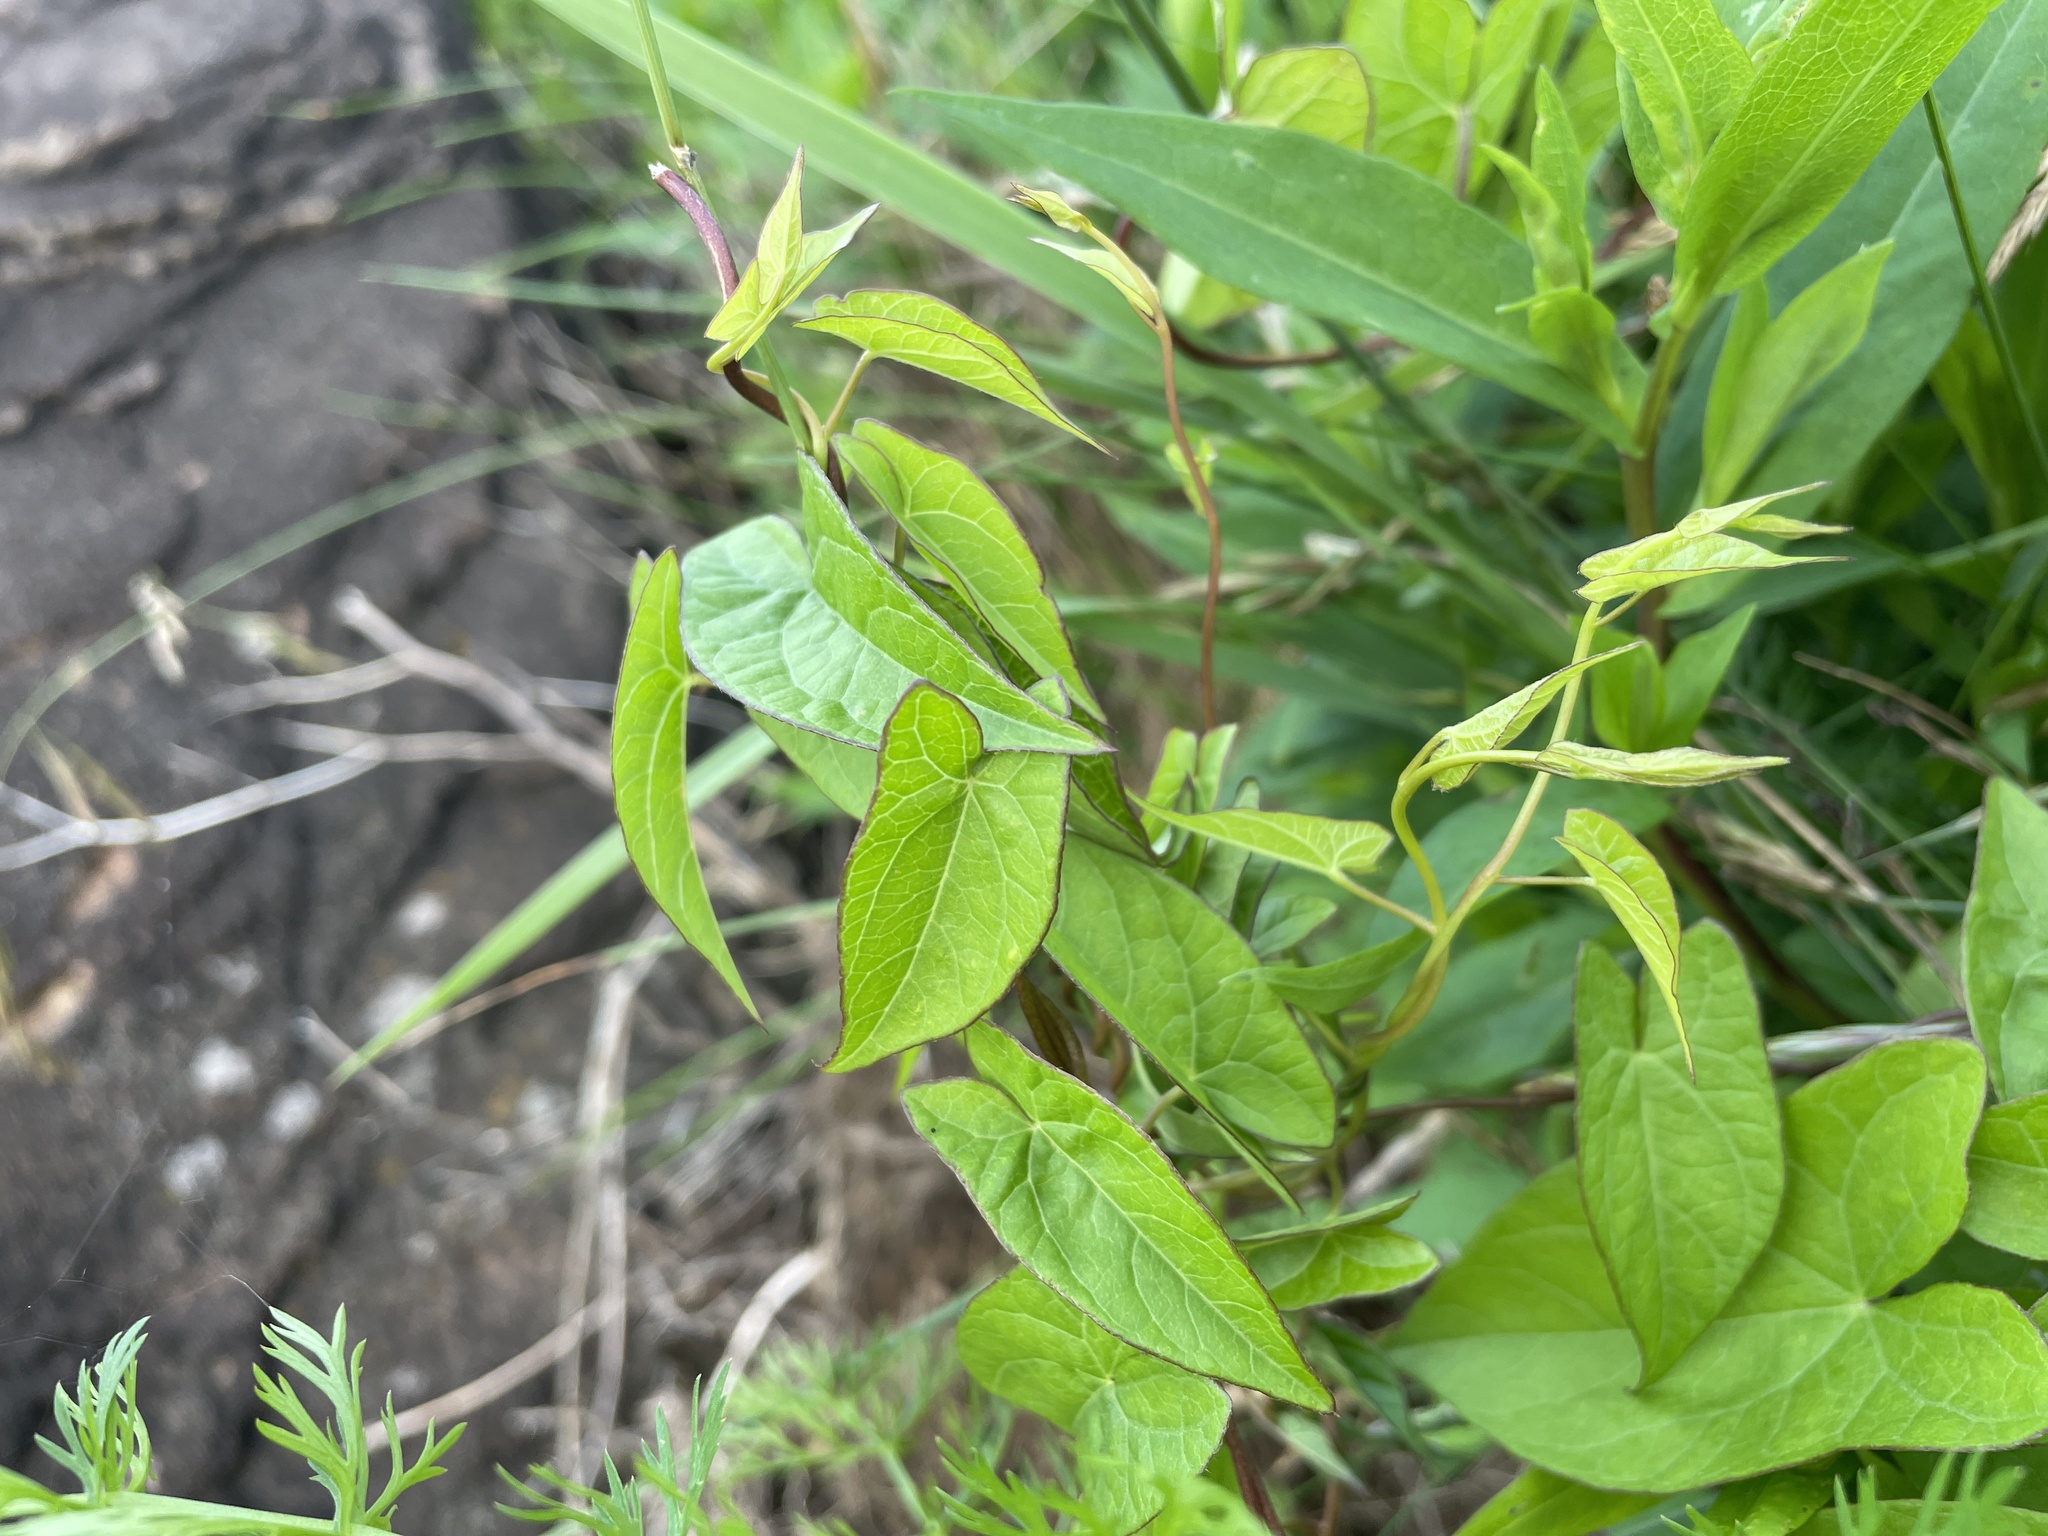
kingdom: Plantae
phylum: Tracheophyta
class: Magnoliopsida
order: Solanales
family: Convolvulaceae
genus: Calystegia
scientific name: Calystegia sepium
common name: Hedge bindweed
